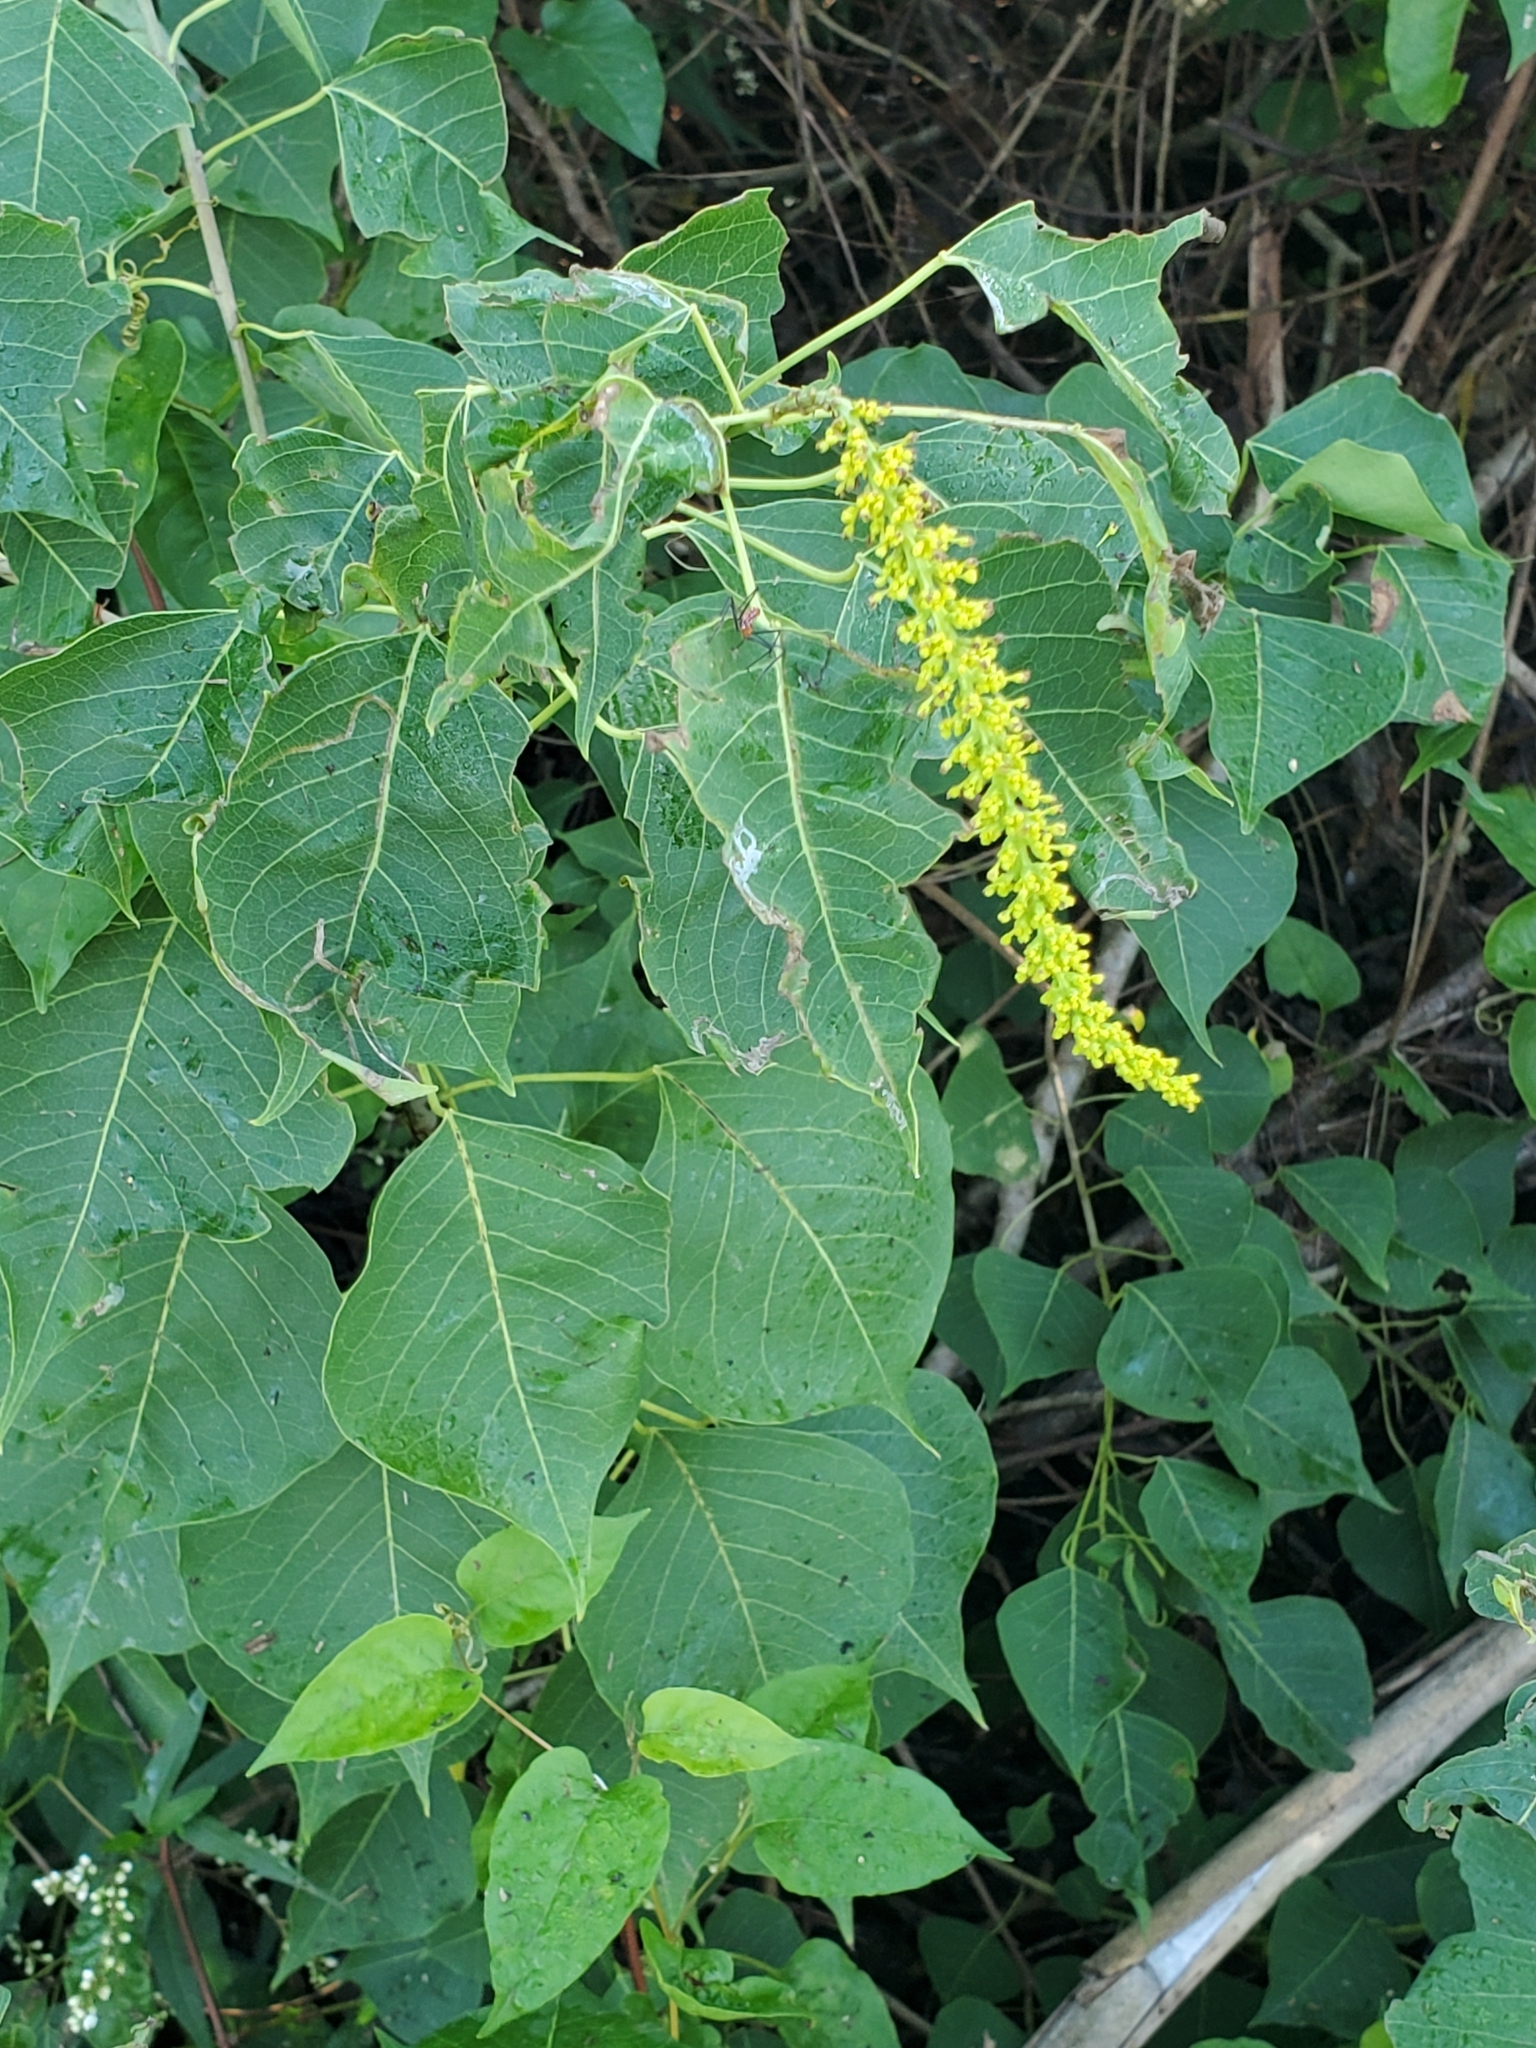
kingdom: Plantae
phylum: Tracheophyta
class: Magnoliopsida
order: Malpighiales
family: Euphorbiaceae
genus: Triadica
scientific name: Triadica sebifera
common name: Chinese tallow
